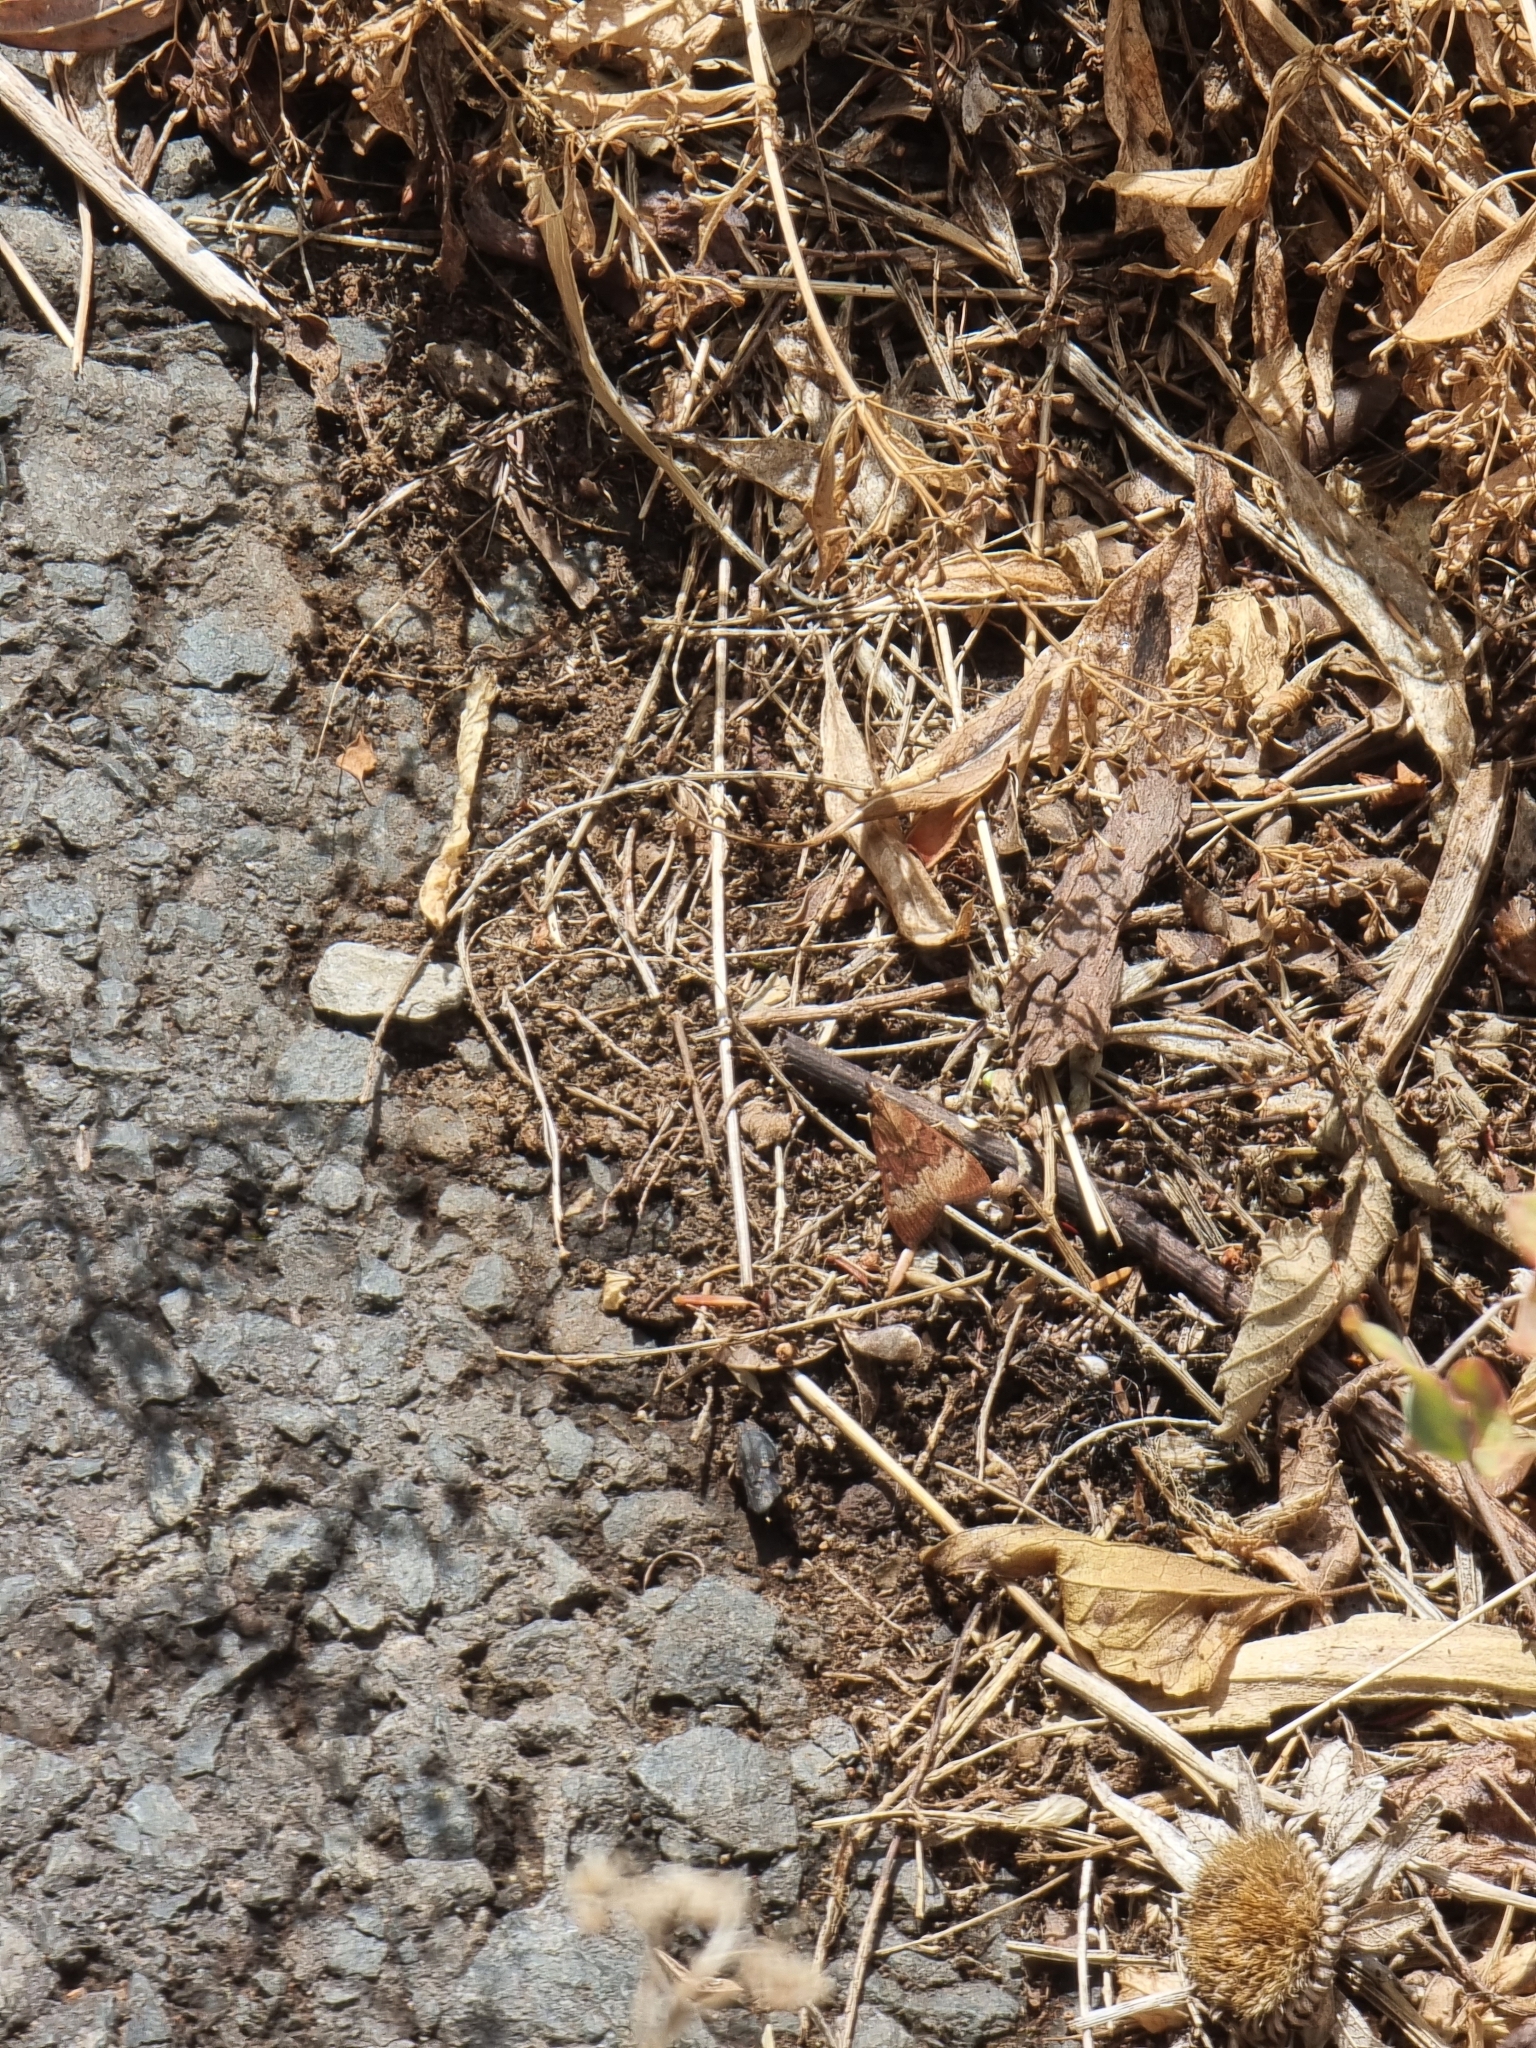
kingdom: Animalia
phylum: Arthropoda
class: Insecta
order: Lepidoptera
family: Crambidae
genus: Uresiphita
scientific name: Uresiphita gilvata
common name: Yellow-underwing pearl
